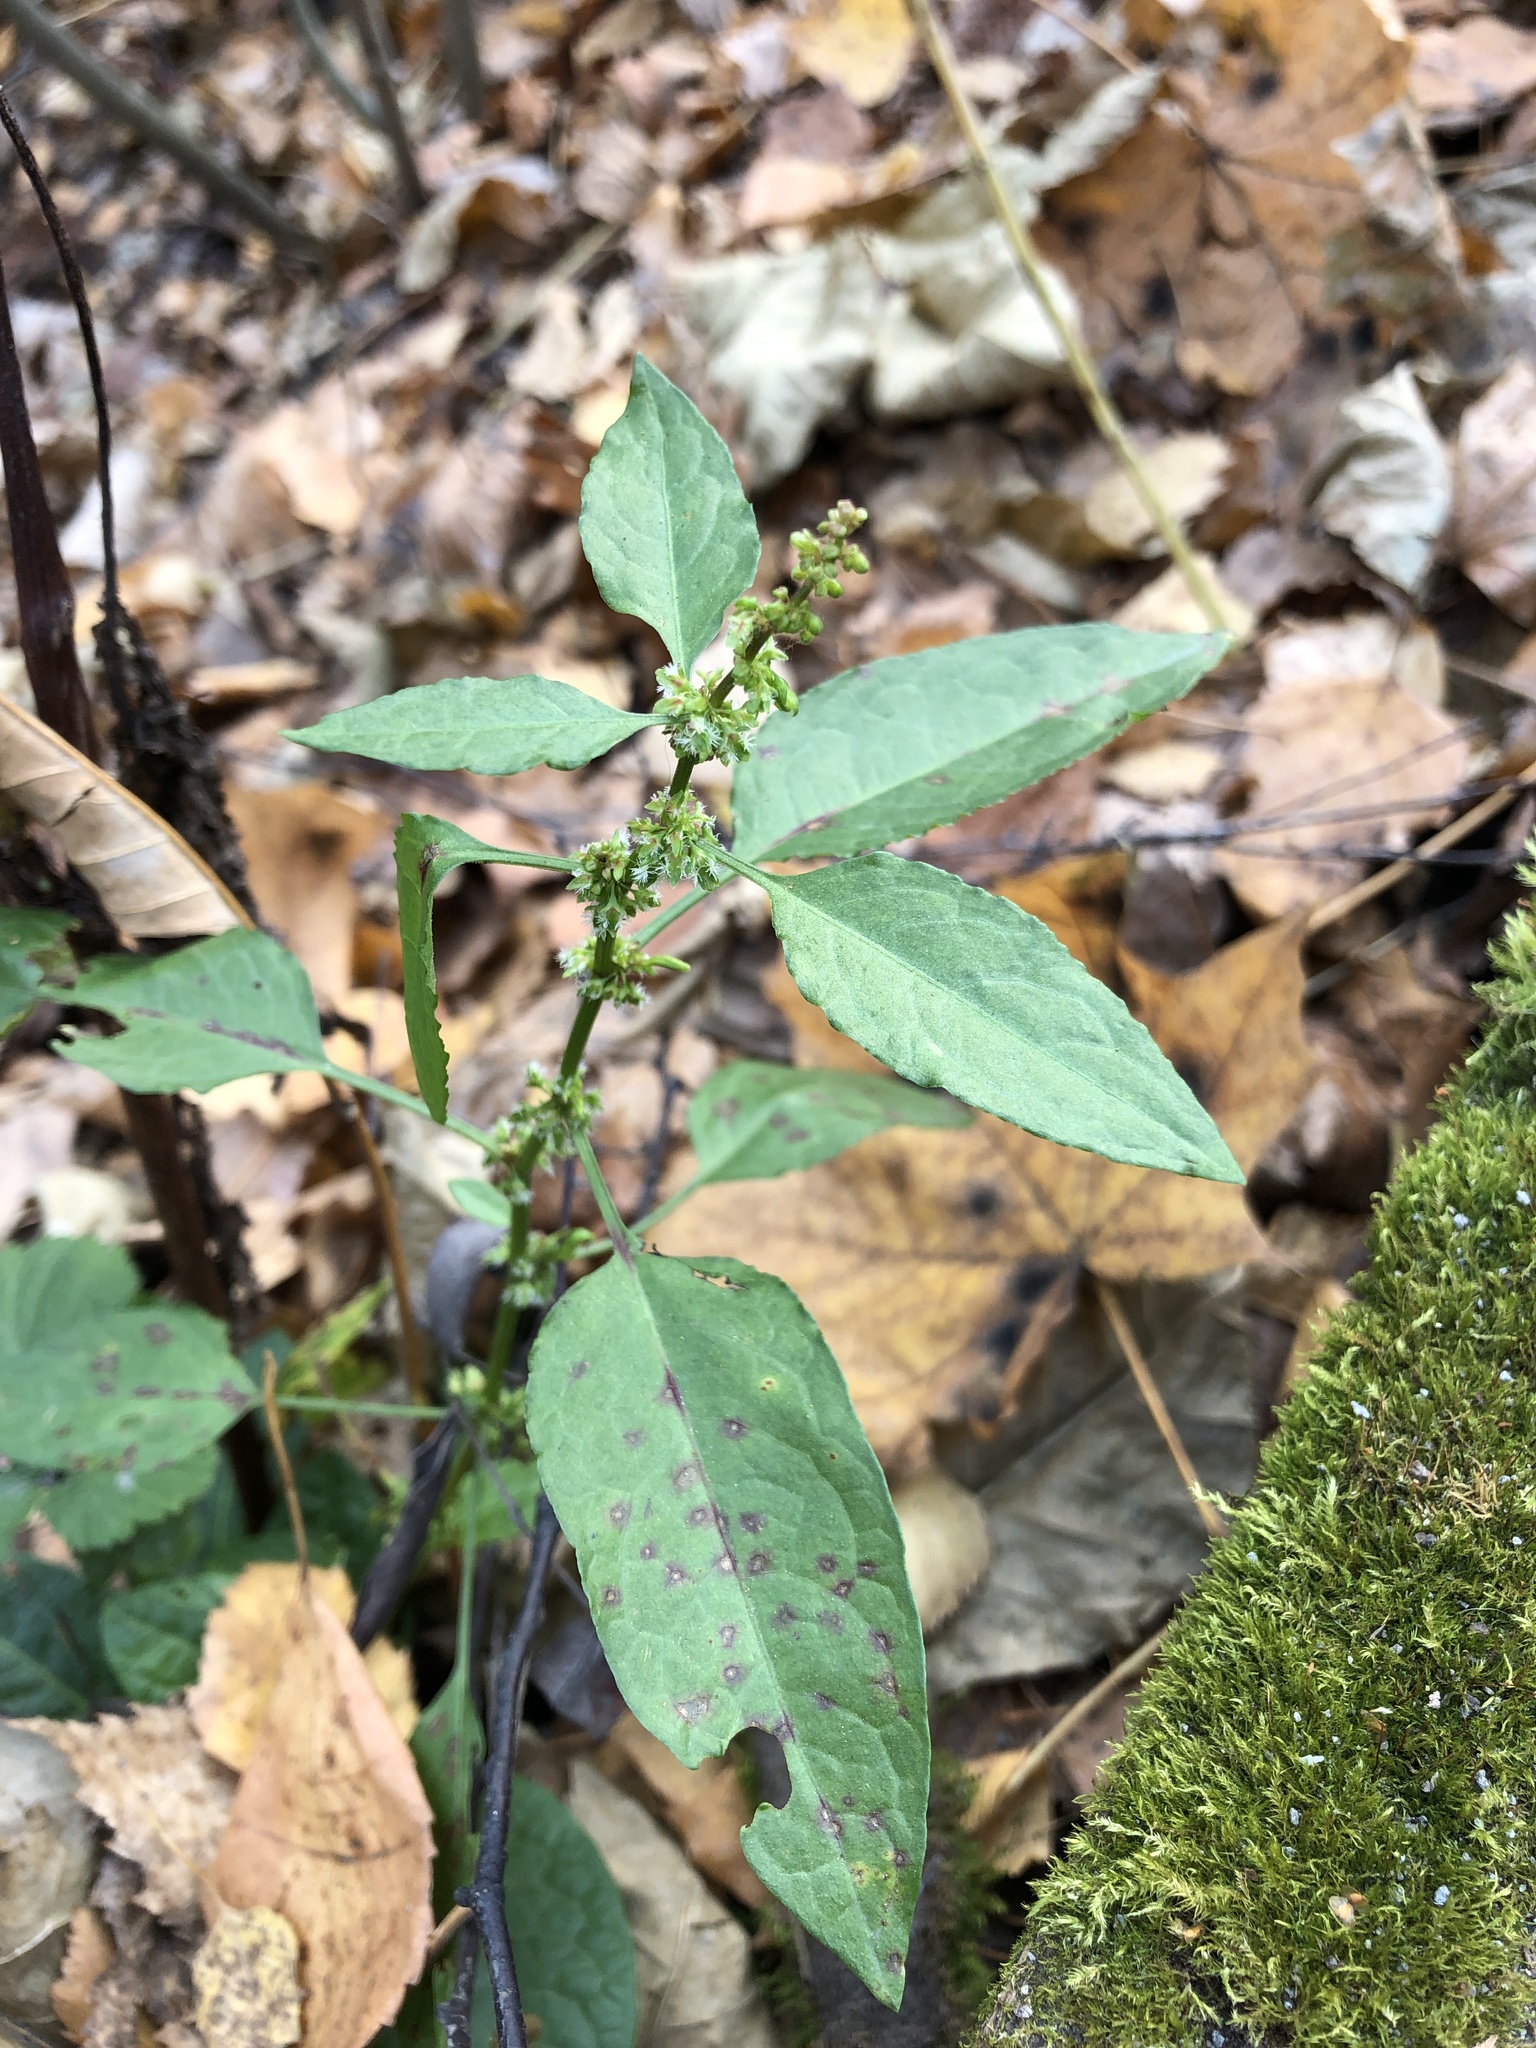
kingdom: Plantae
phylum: Tracheophyta
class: Magnoliopsida
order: Caryophyllales
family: Polygonaceae
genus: Rumex
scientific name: Rumex obtusifolius
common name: Bitter dock
